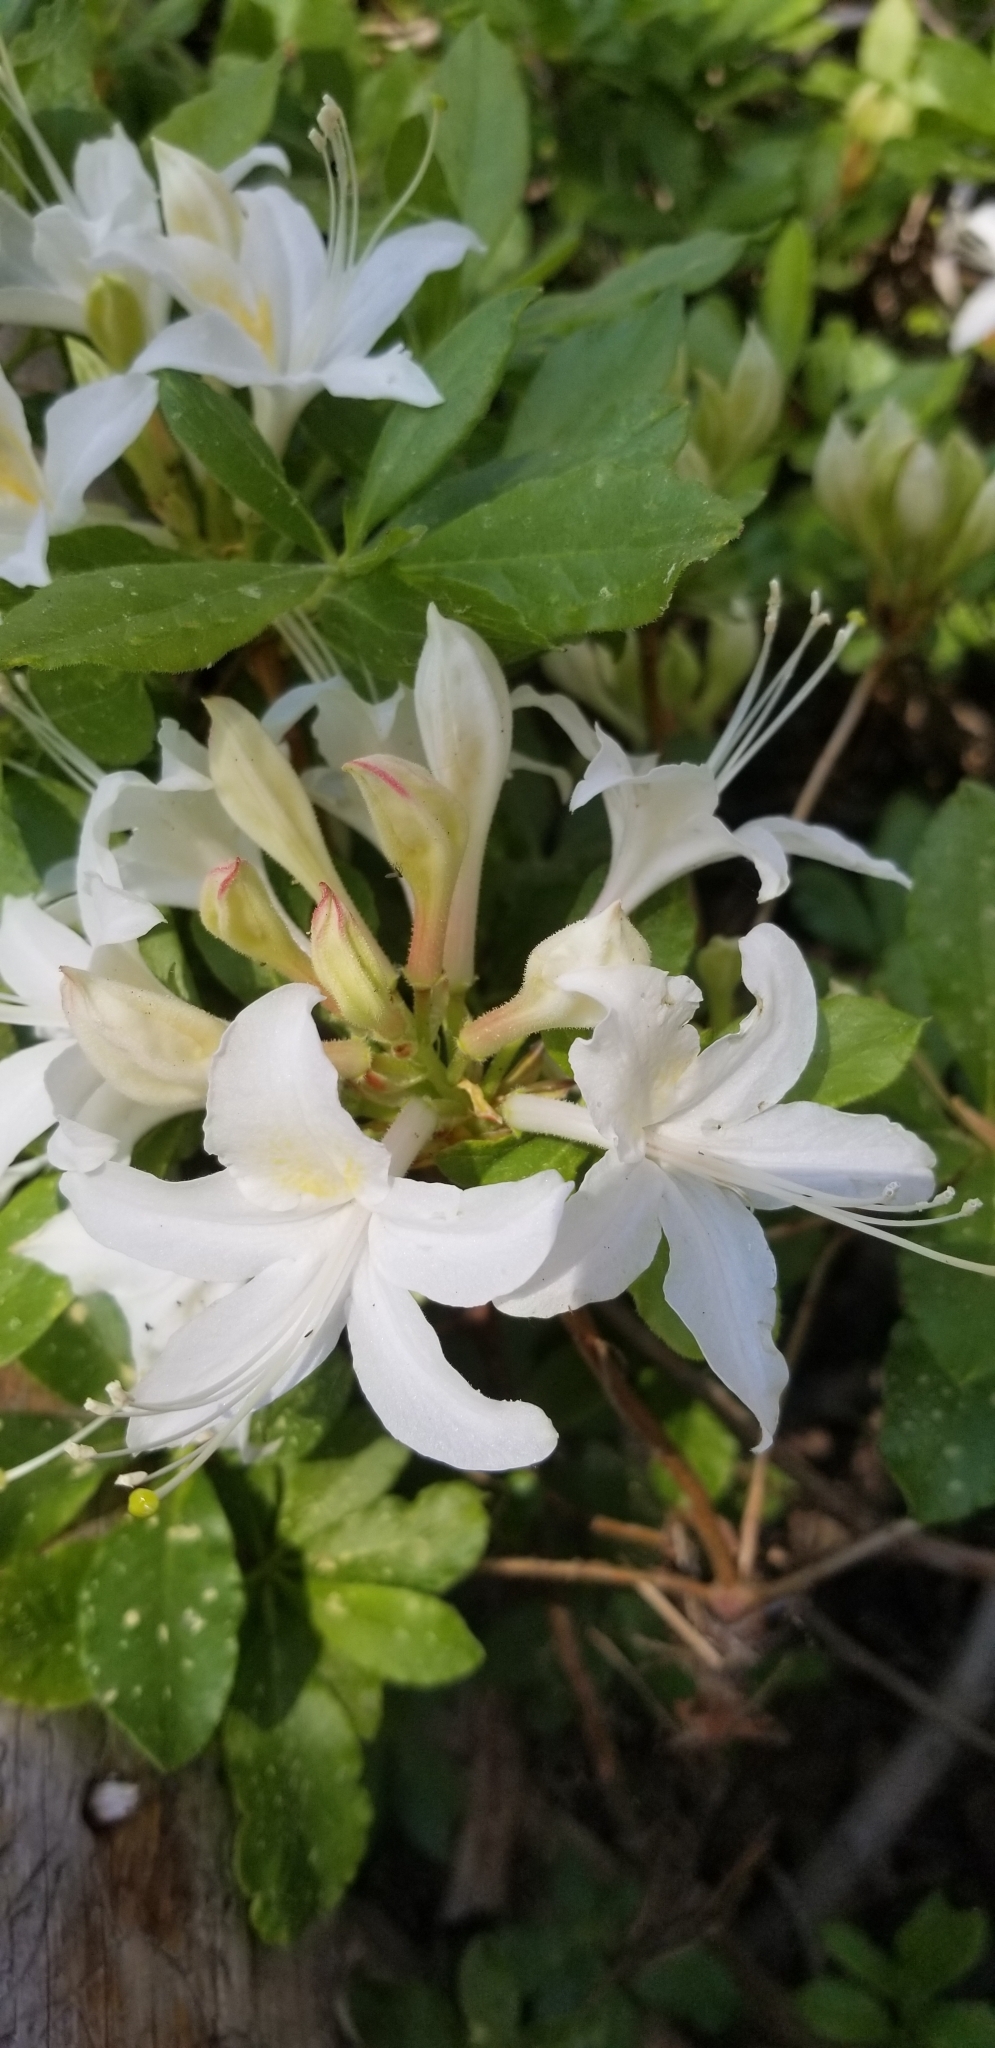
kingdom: Plantae
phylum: Tracheophyta
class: Magnoliopsida
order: Ericales
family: Ericaceae
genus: Rhododendron
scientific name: Rhododendron occidentale
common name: Western azalea
